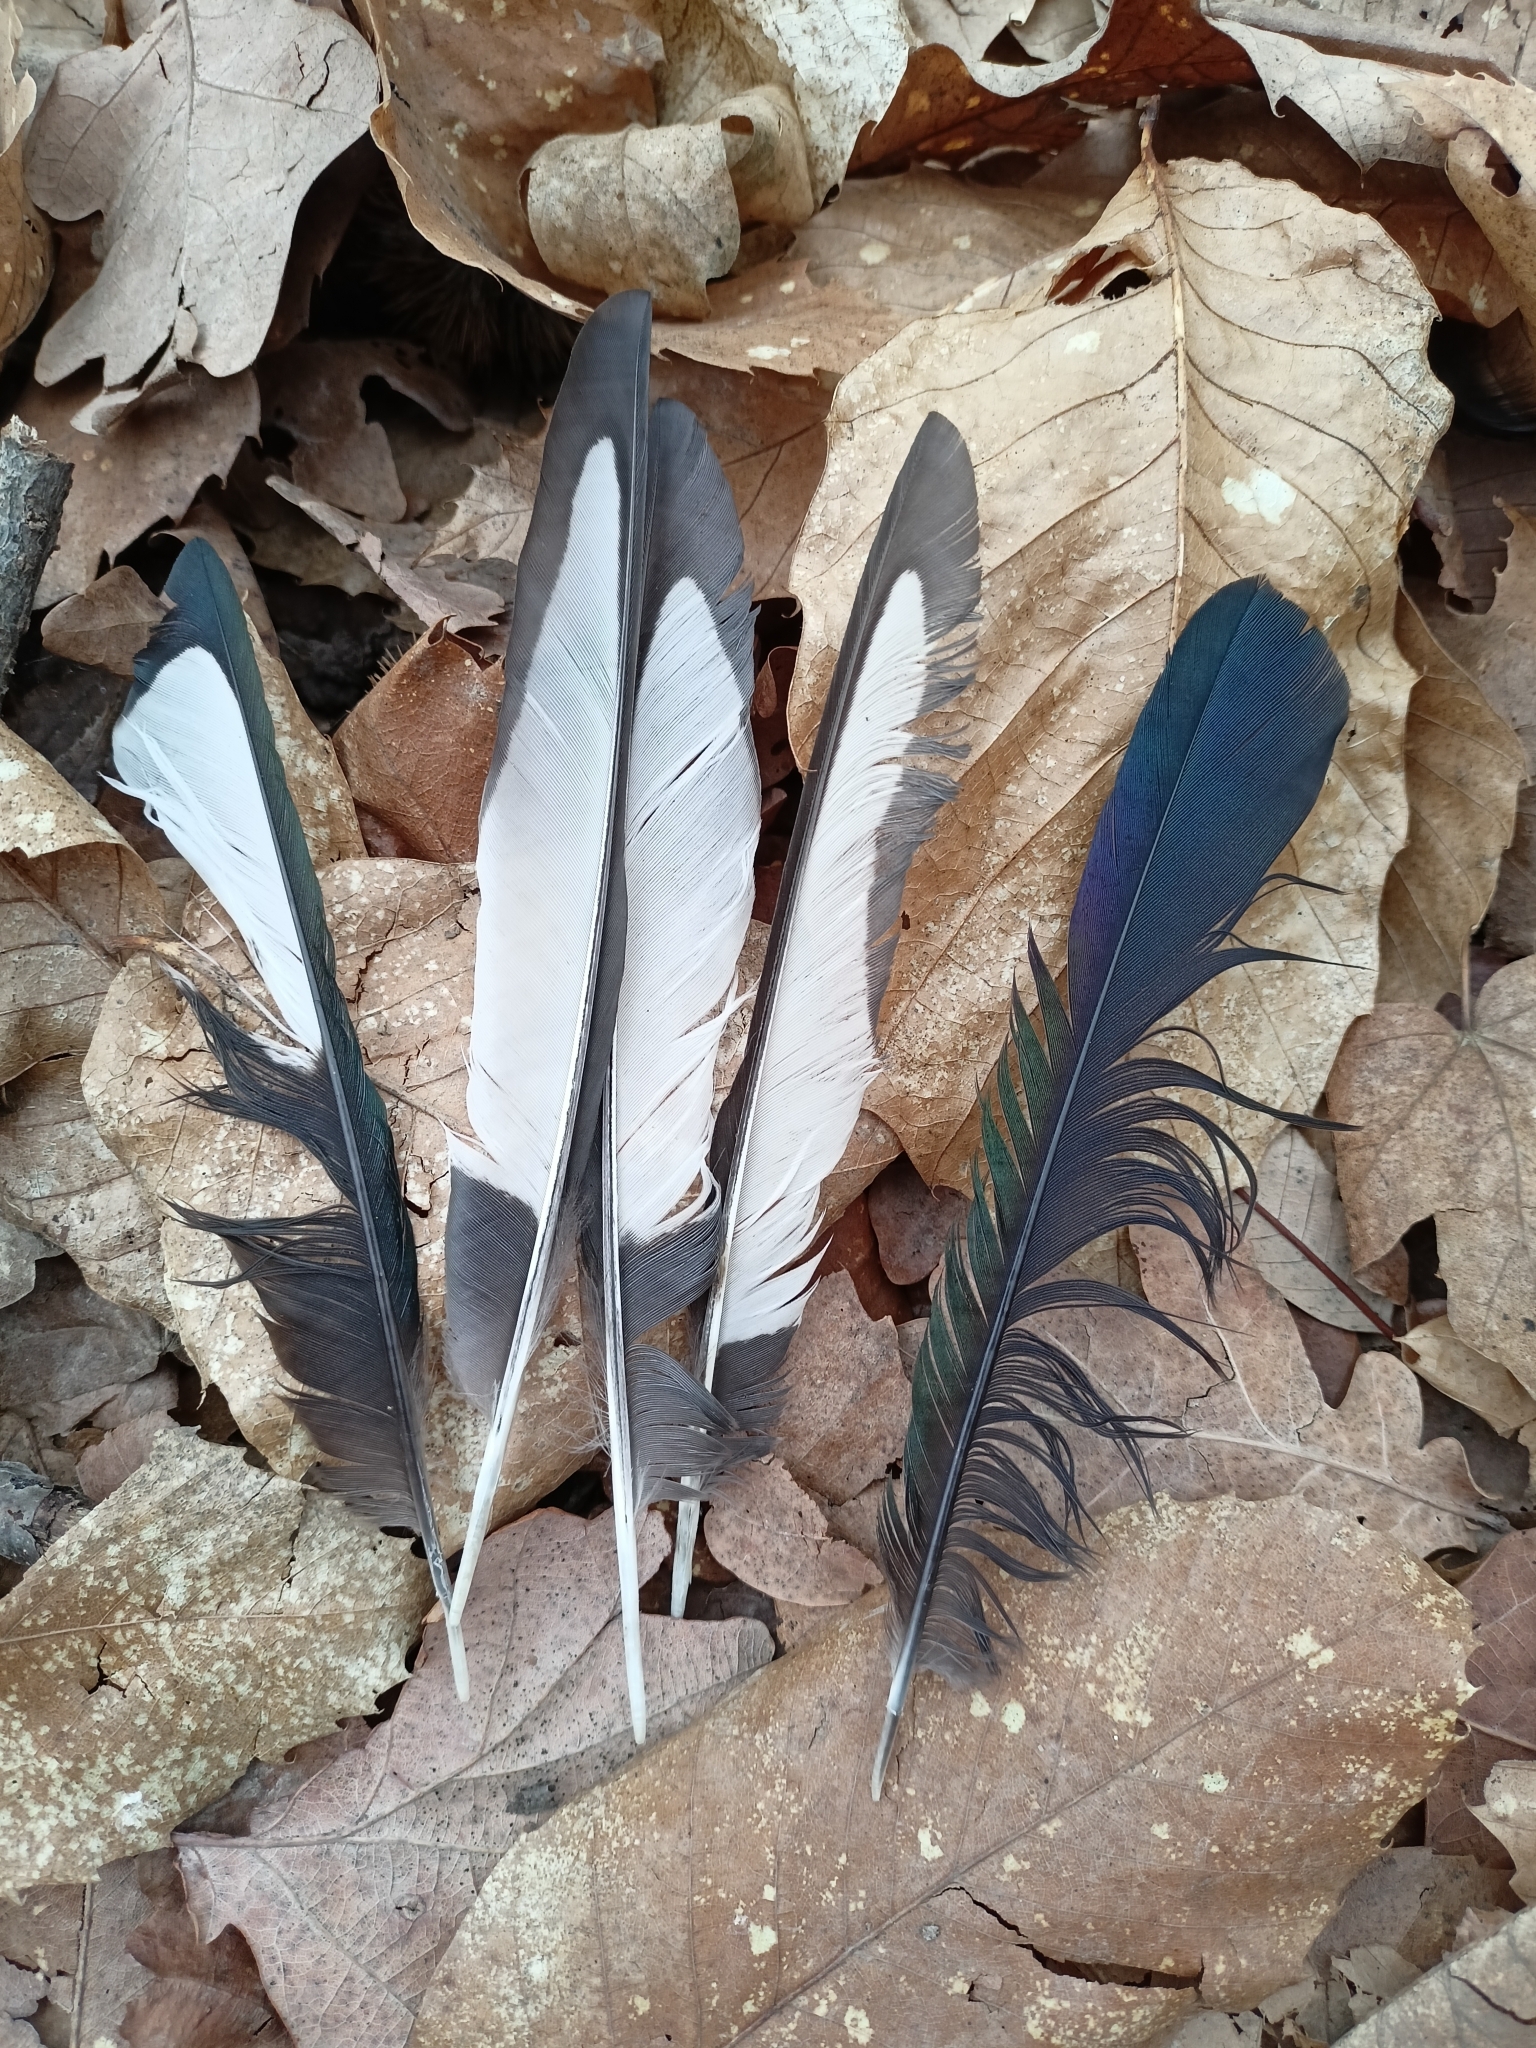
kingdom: Animalia
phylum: Chordata
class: Aves
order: Passeriformes
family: Corvidae
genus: Pica
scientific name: Pica pica
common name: Eurasian magpie
